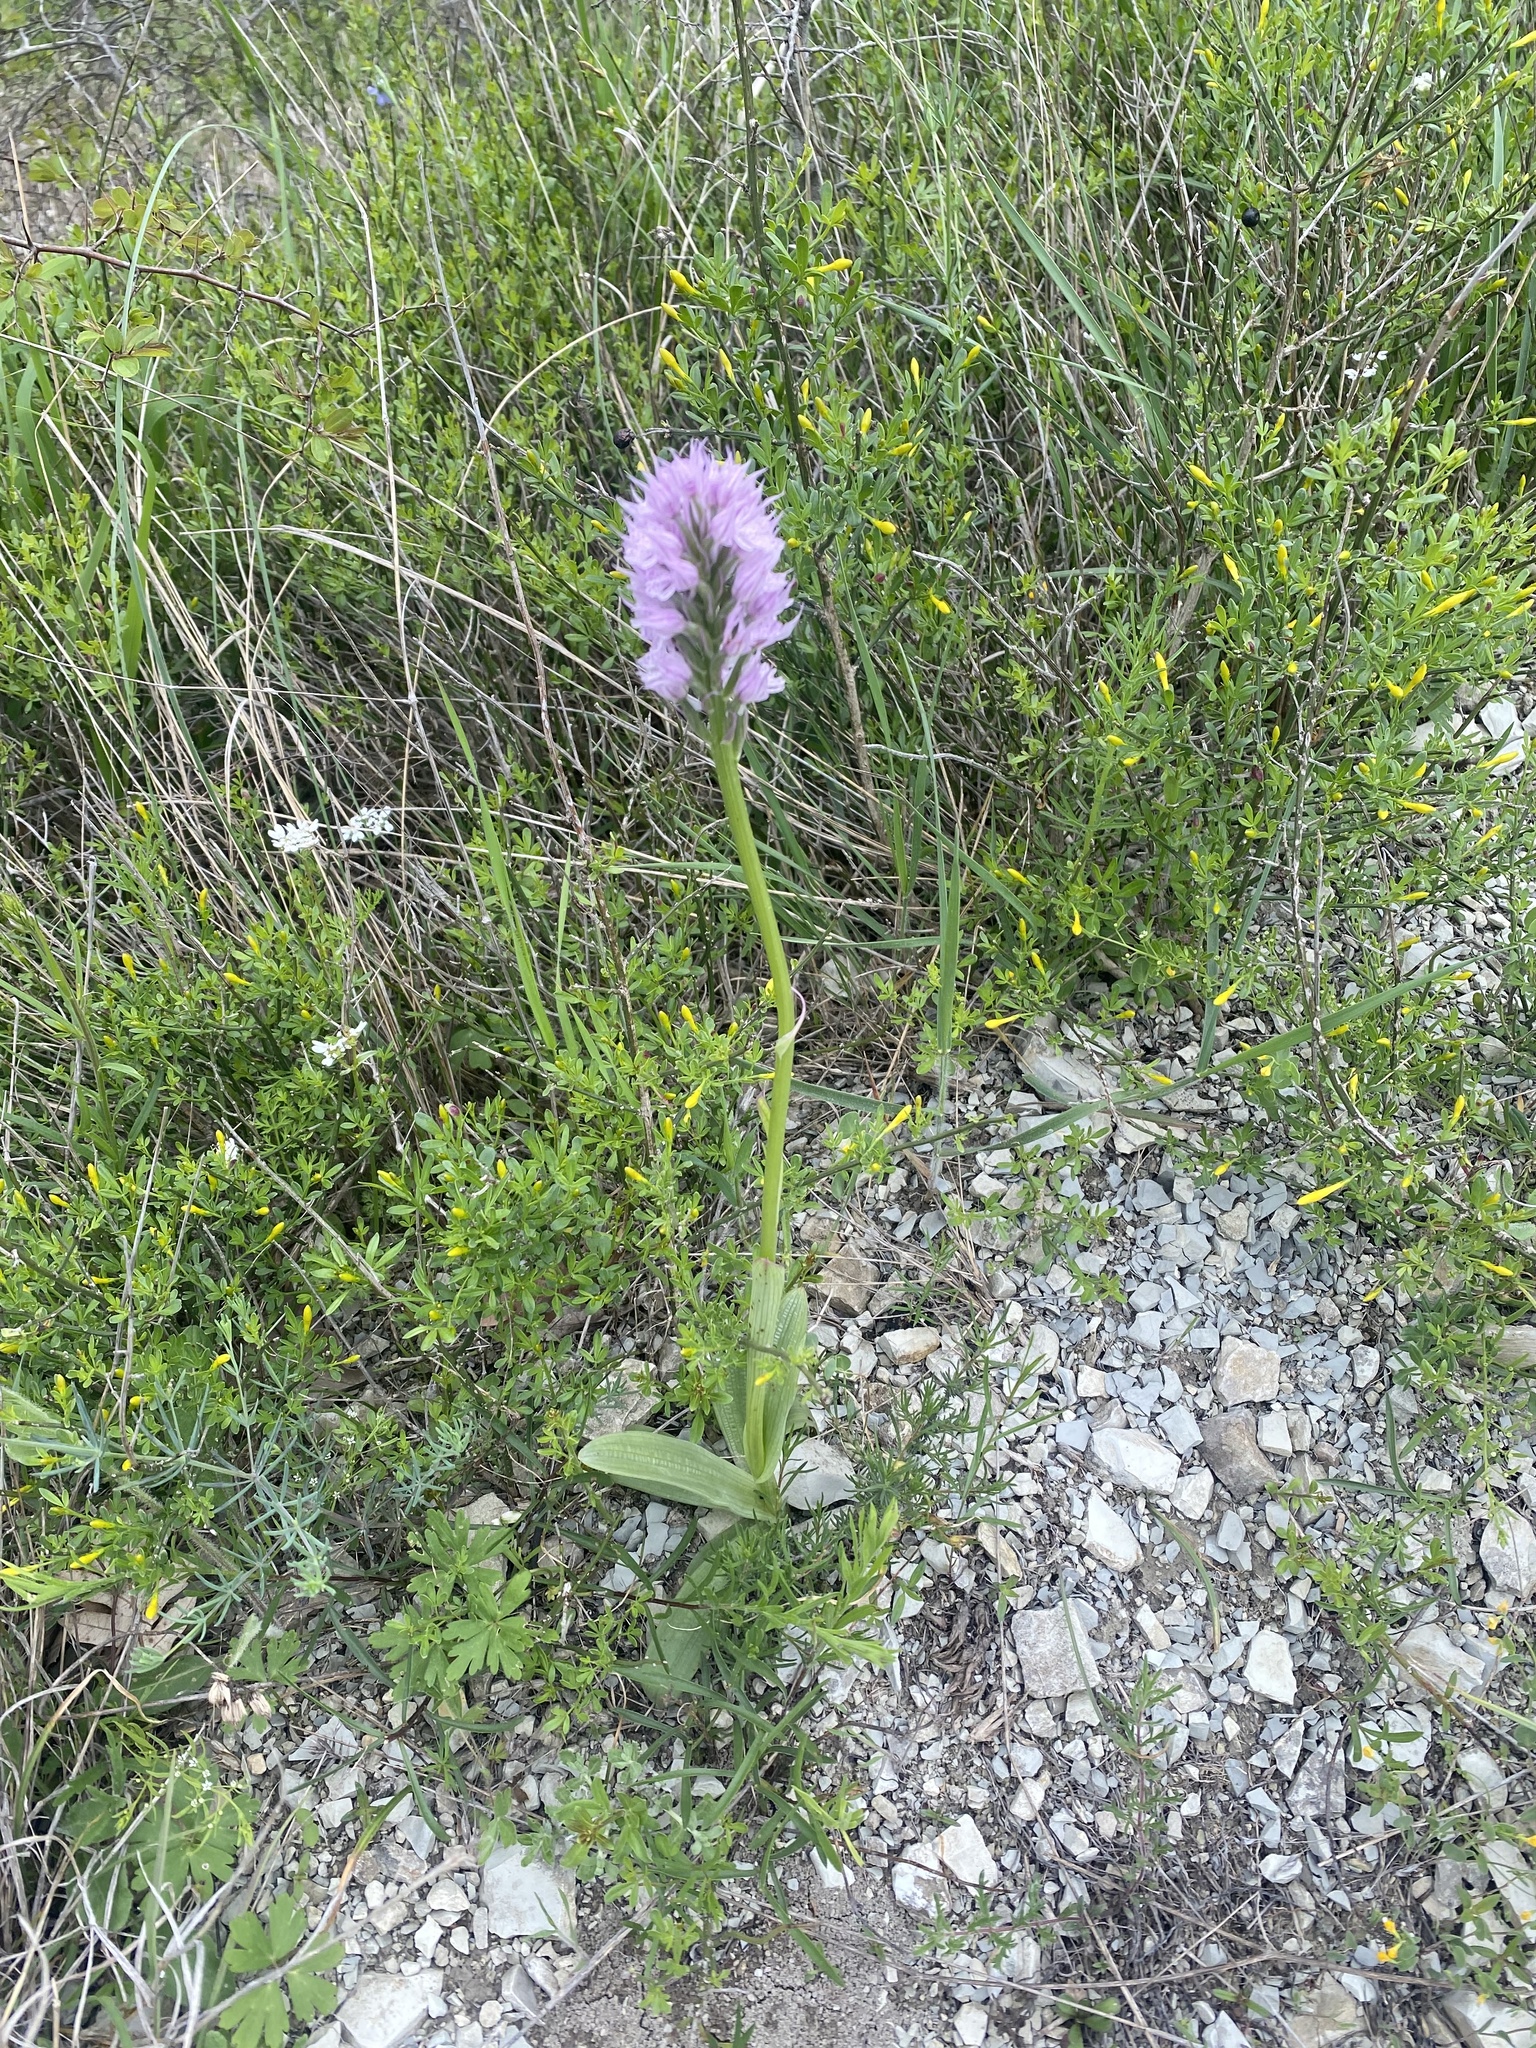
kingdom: Plantae
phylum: Tracheophyta
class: Liliopsida
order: Asparagales
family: Orchidaceae
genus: Neotinea
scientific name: Neotinea tridentata
